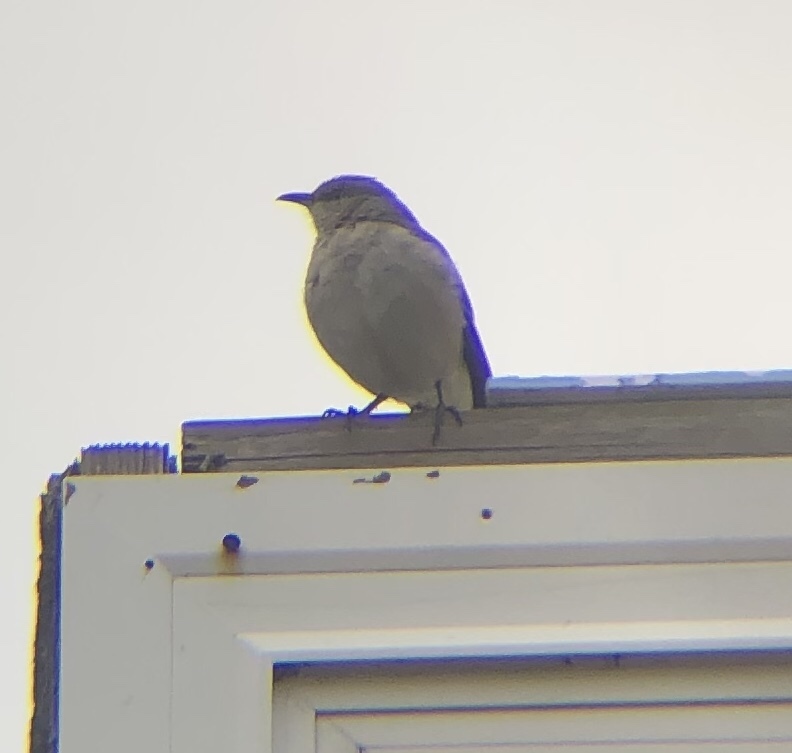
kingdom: Animalia
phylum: Chordata
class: Aves
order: Passeriformes
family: Mimidae
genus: Mimus
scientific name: Mimus polyglottos
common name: Northern mockingbird
